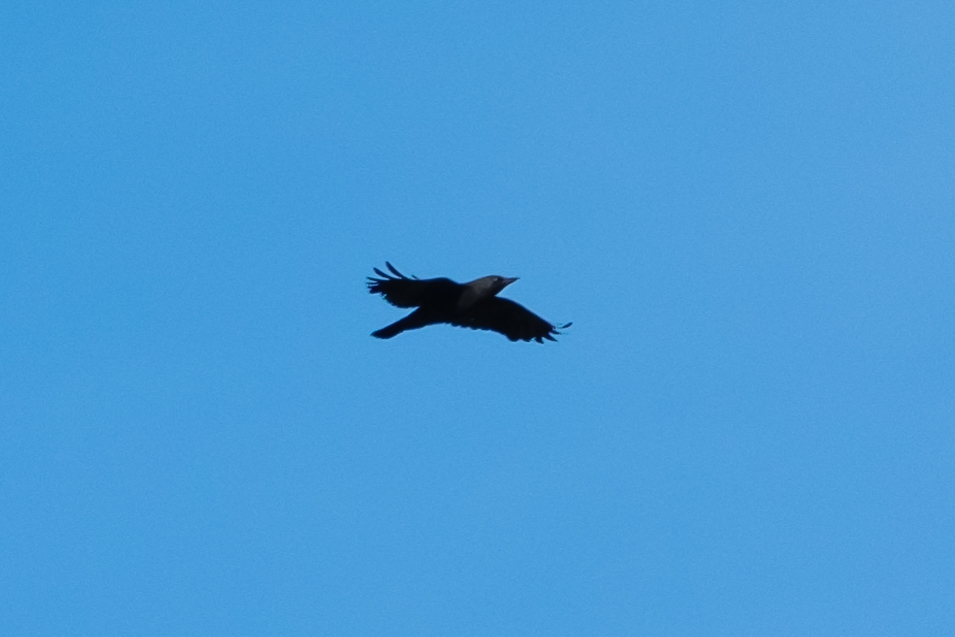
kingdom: Animalia
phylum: Chordata
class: Aves
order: Passeriformes
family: Corvidae
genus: Coloeus
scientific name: Coloeus monedula
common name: Western jackdaw
